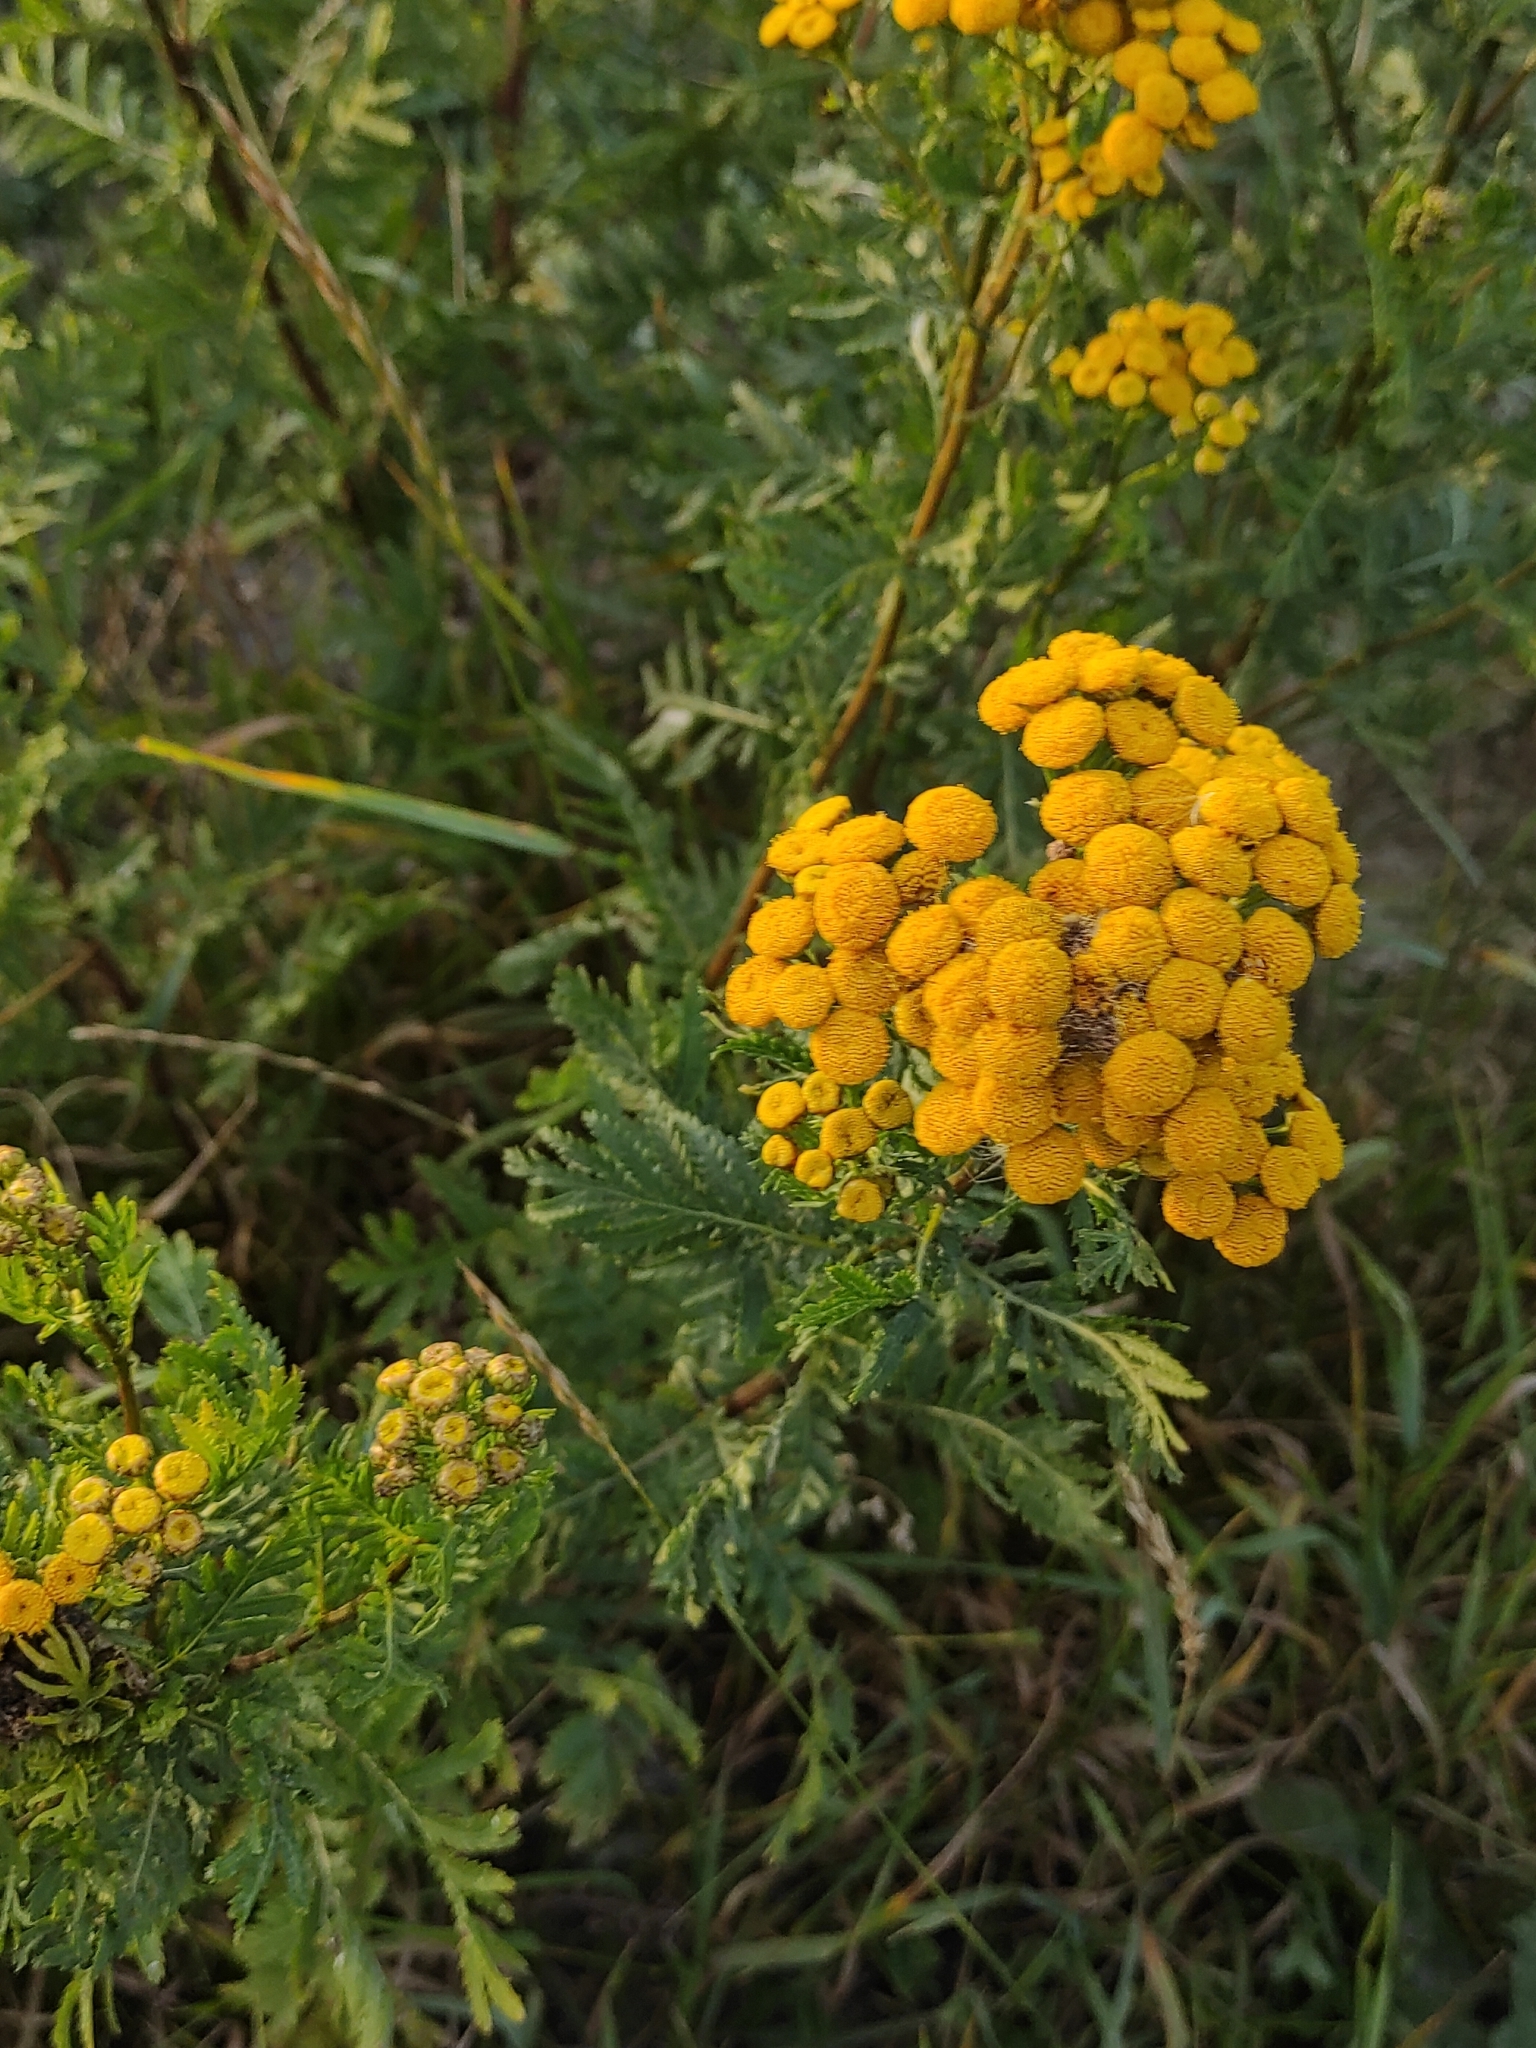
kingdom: Plantae
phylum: Tracheophyta
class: Magnoliopsida
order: Asterales
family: Asteraceae
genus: Tanacetum
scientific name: Tanacetum vulgare
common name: Common tansy
